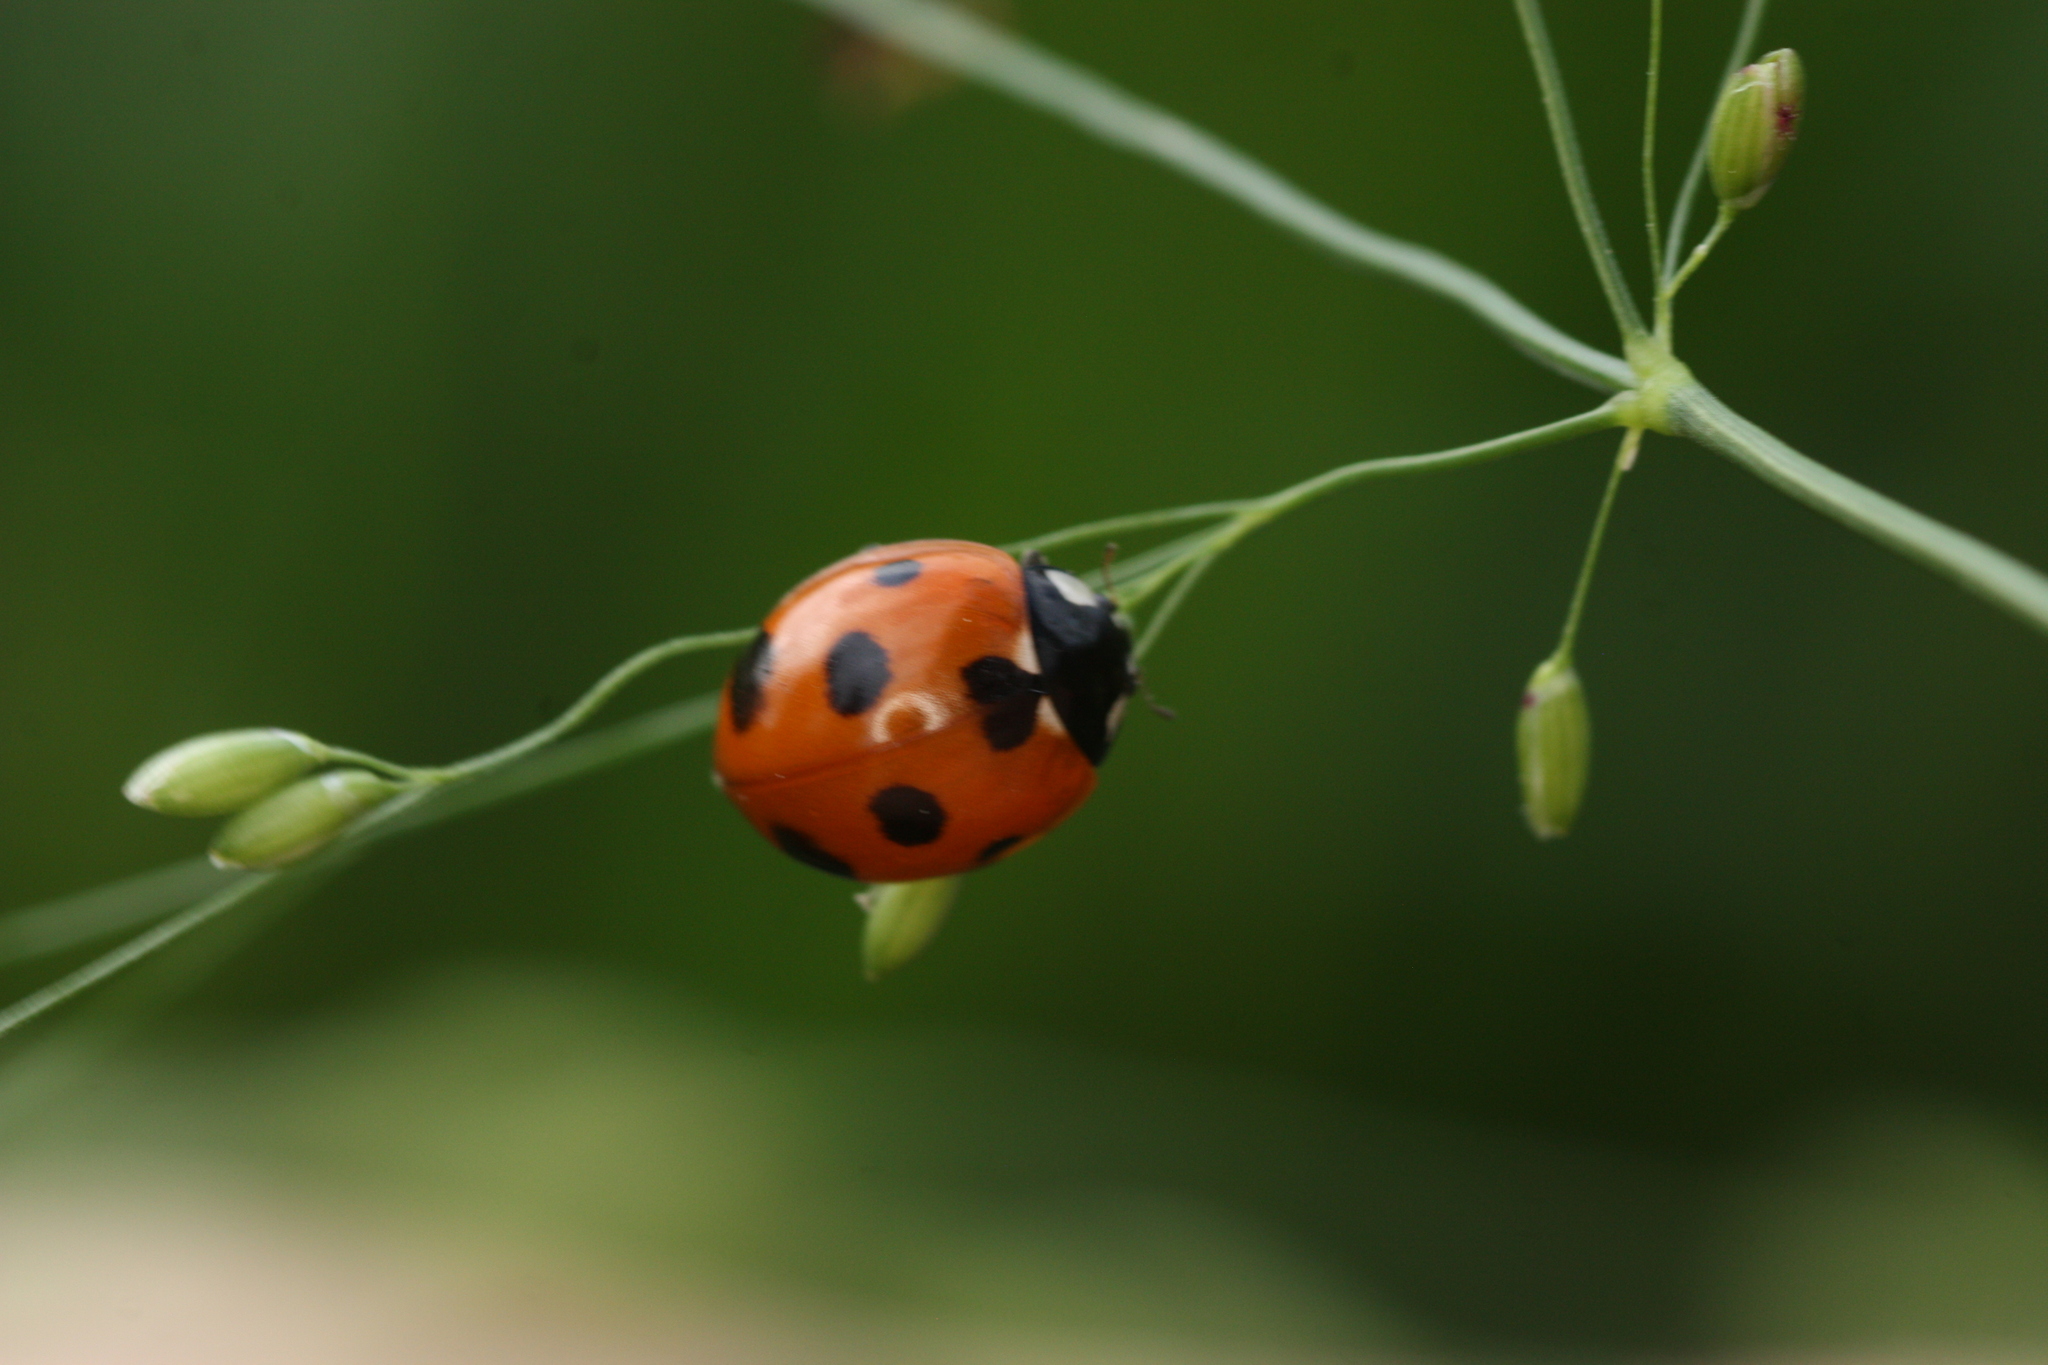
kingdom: Animalia
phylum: Arthropoda
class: Insecta
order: Coleoptera
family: Coccinellidae
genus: Coccinella
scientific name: Coccinella septempunctata
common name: Sevenspotted lady beetle
